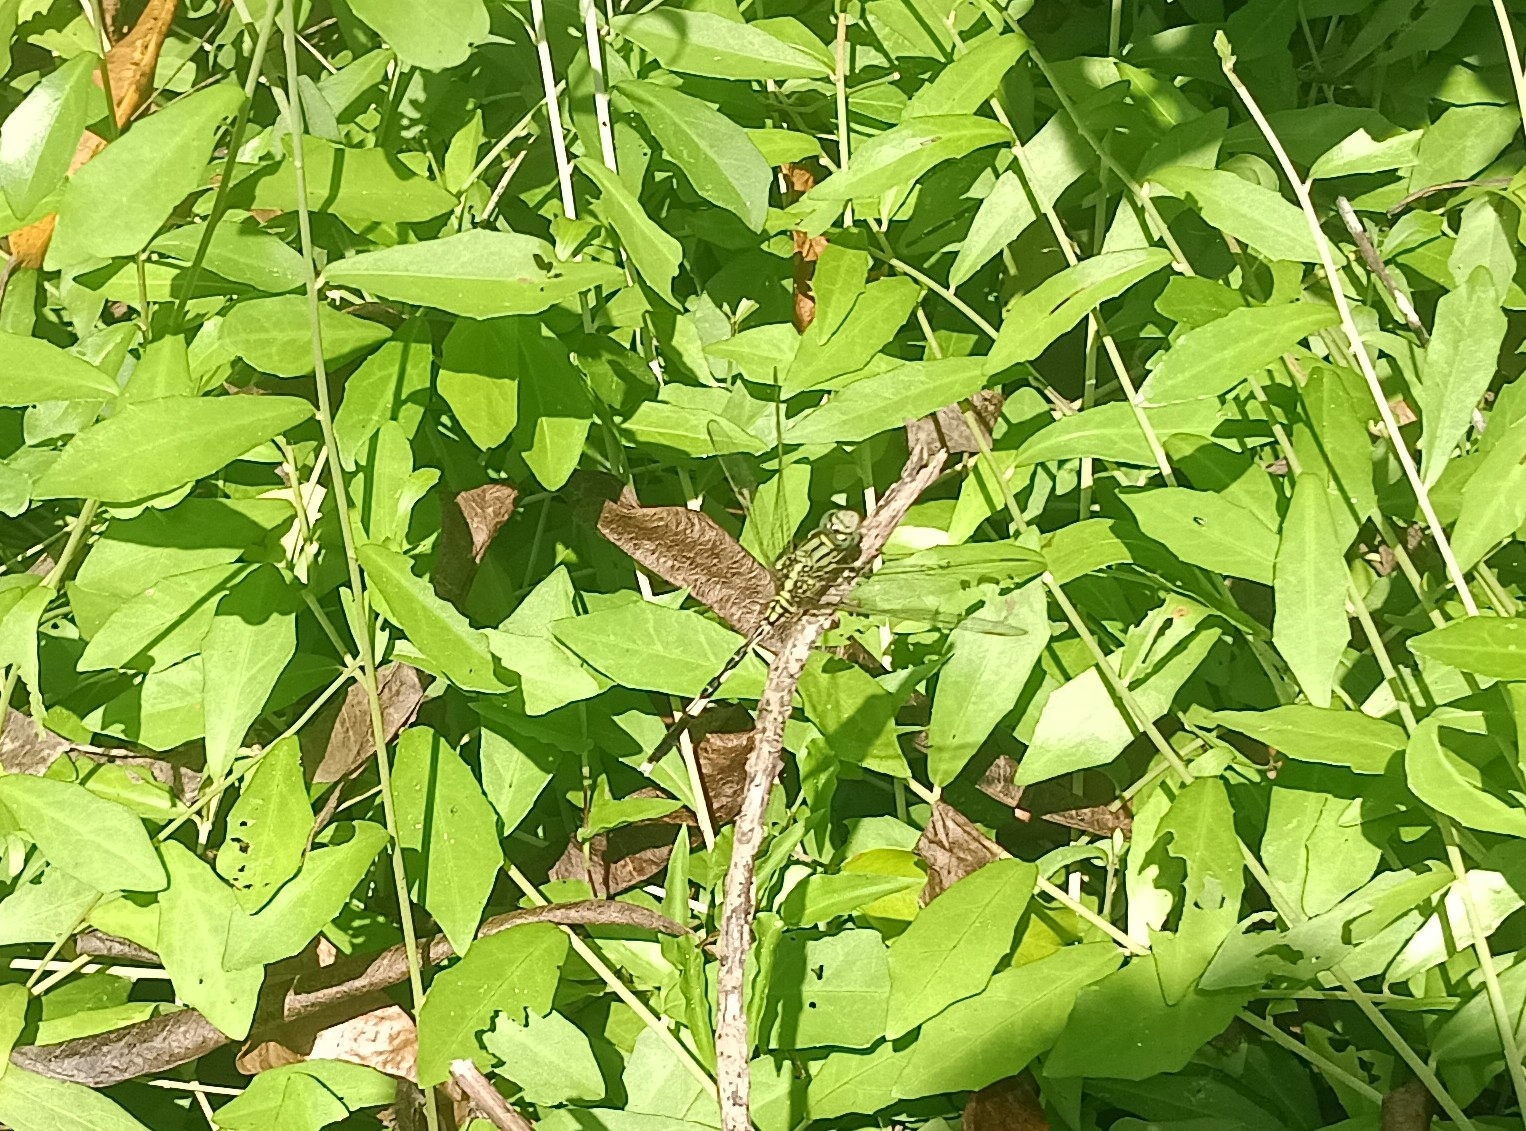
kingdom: Animalia
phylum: Arthropoda
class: Insecta
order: Odonata
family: Libellulidae
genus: Orthetrum
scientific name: Orthetrum sabina
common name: Slender skimmer
